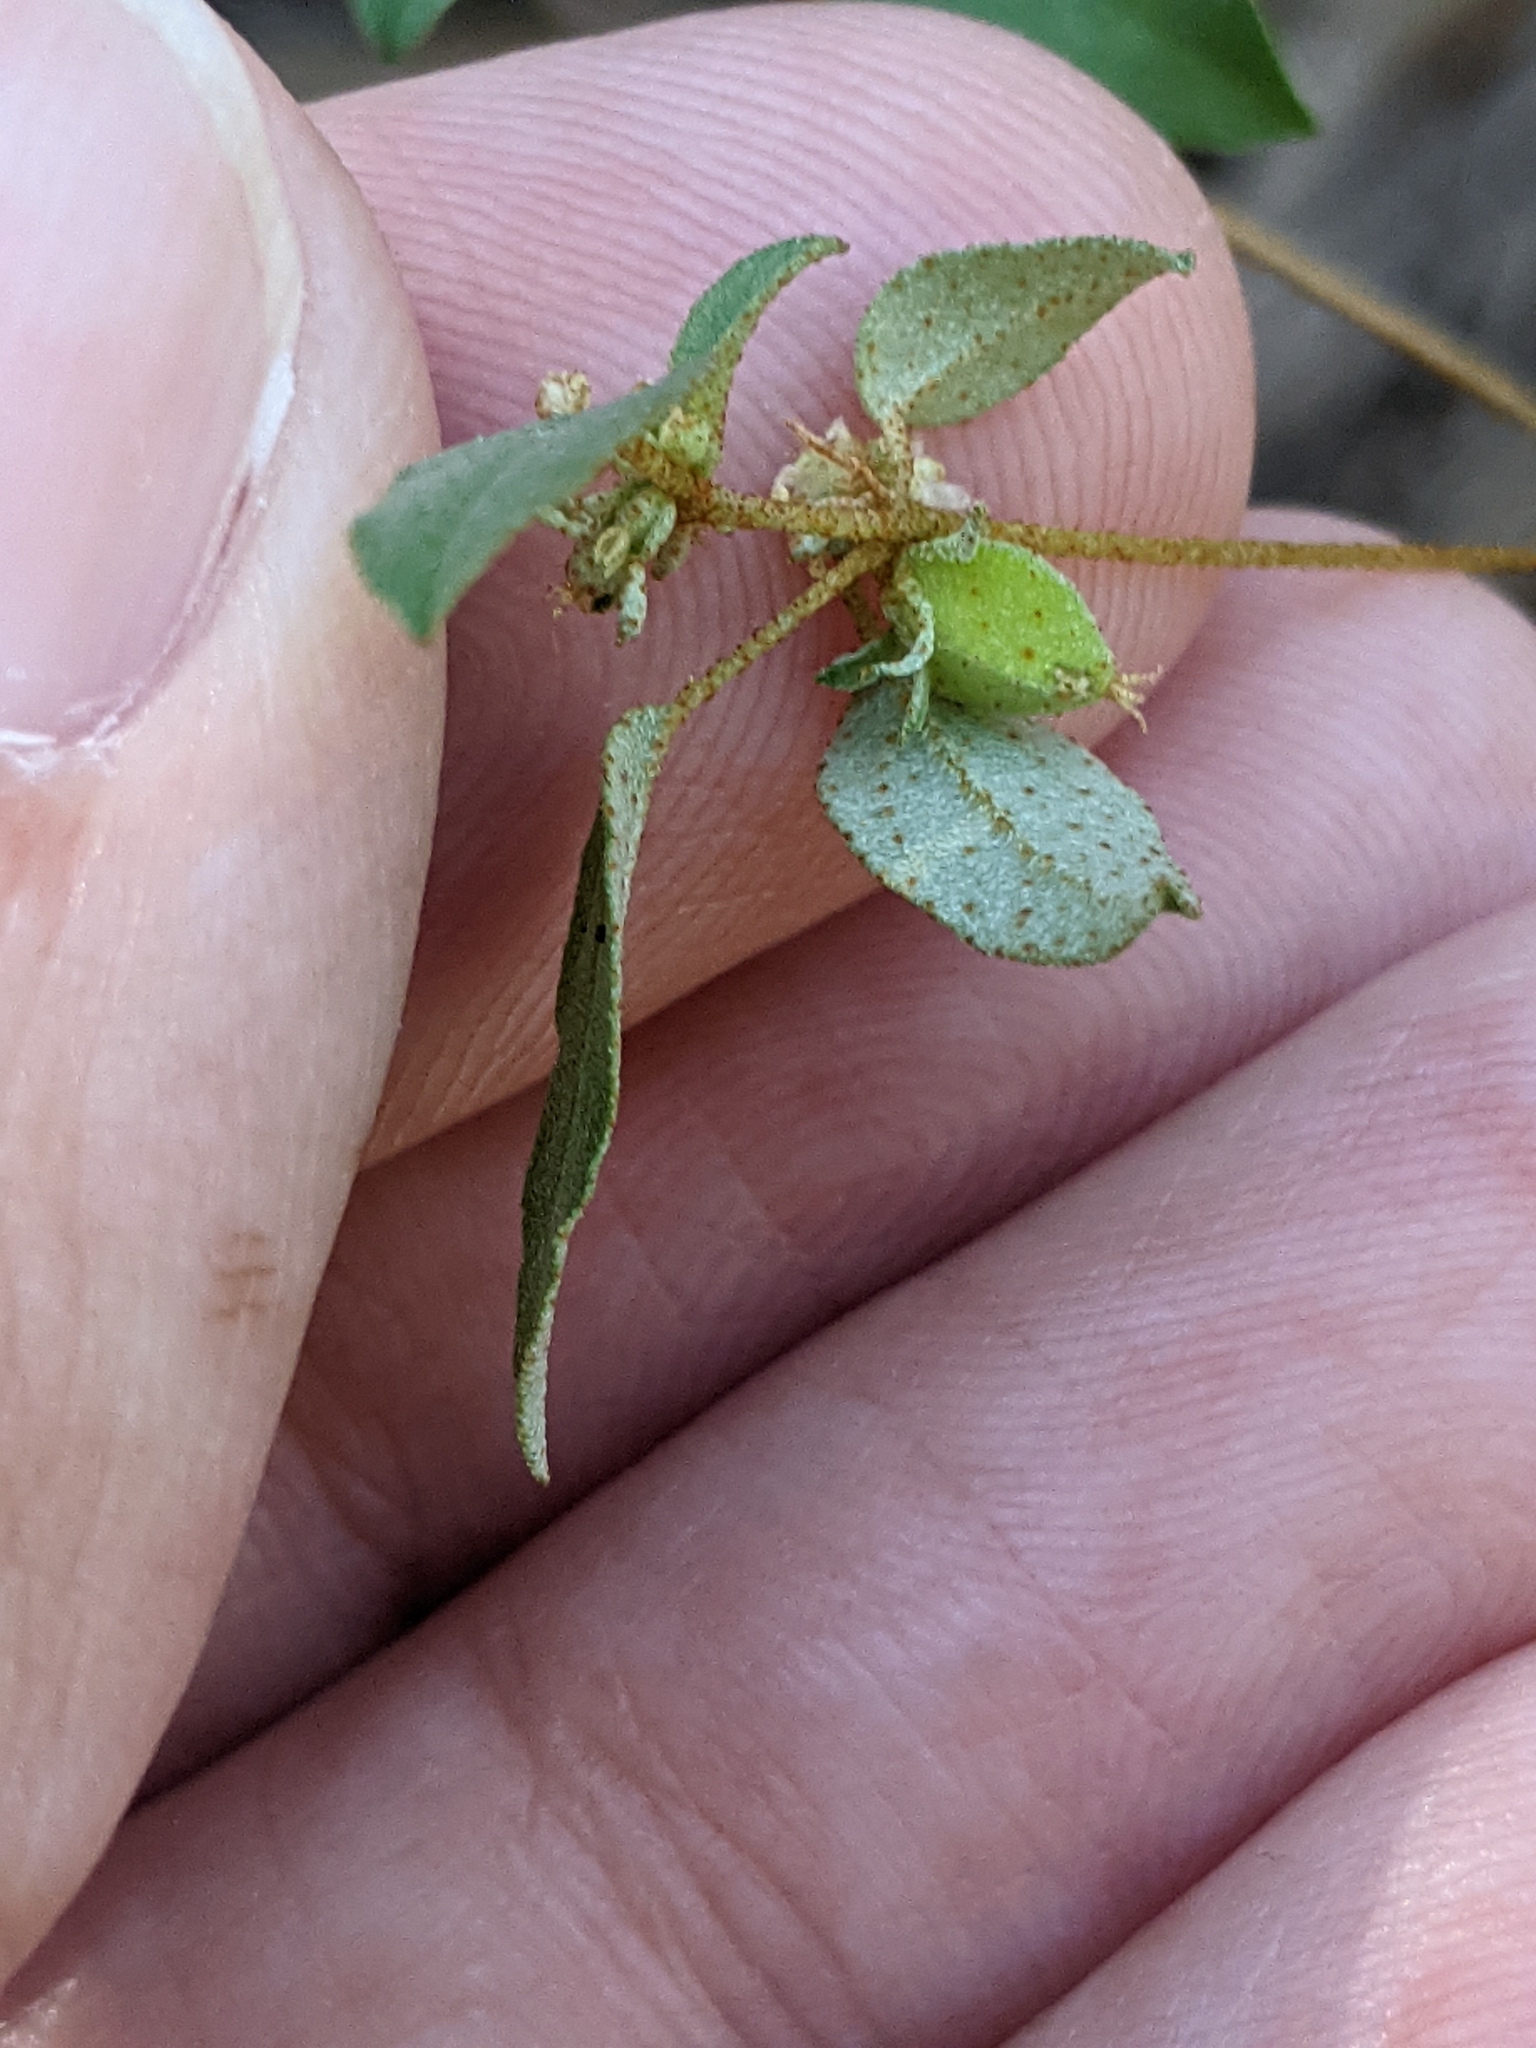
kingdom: Plantae
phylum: Tracheophyta
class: Magnoliopsida
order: Malpighiales
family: Euphorbiaceae
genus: Croton
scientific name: Croton monanthogynus
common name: One-seed croton
